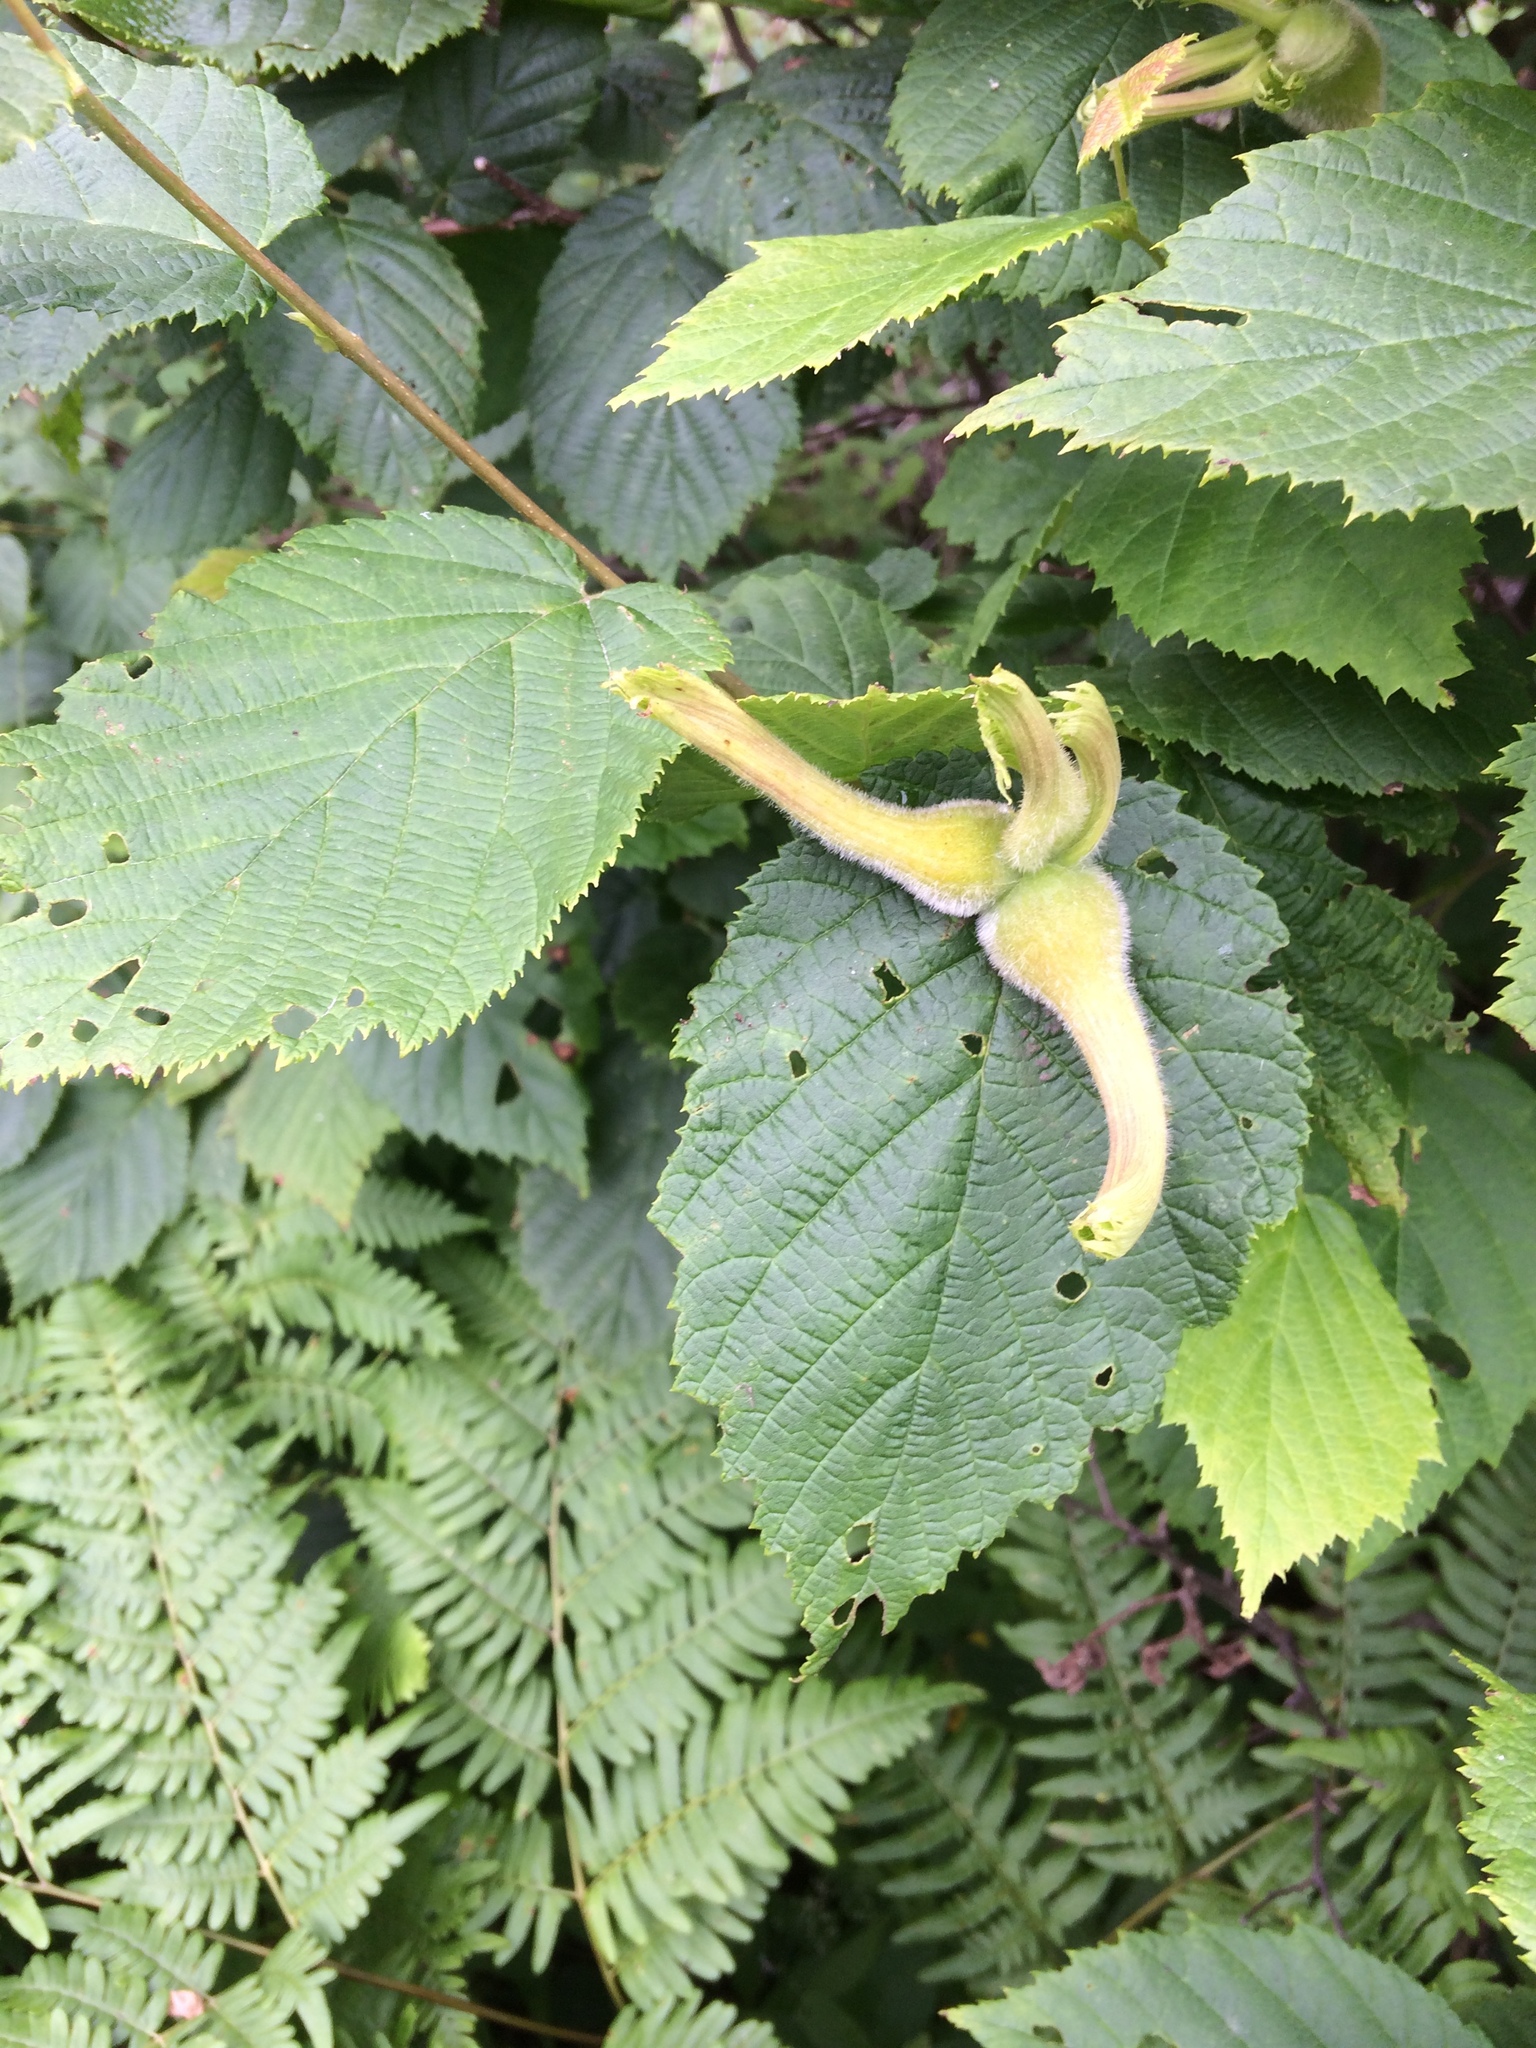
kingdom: Plantae
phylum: Tracheophyta
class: Magnoliopsida
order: Fagales
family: Betulaceae
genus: Corylus
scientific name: Corylus cornuta
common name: Beaked hazel
